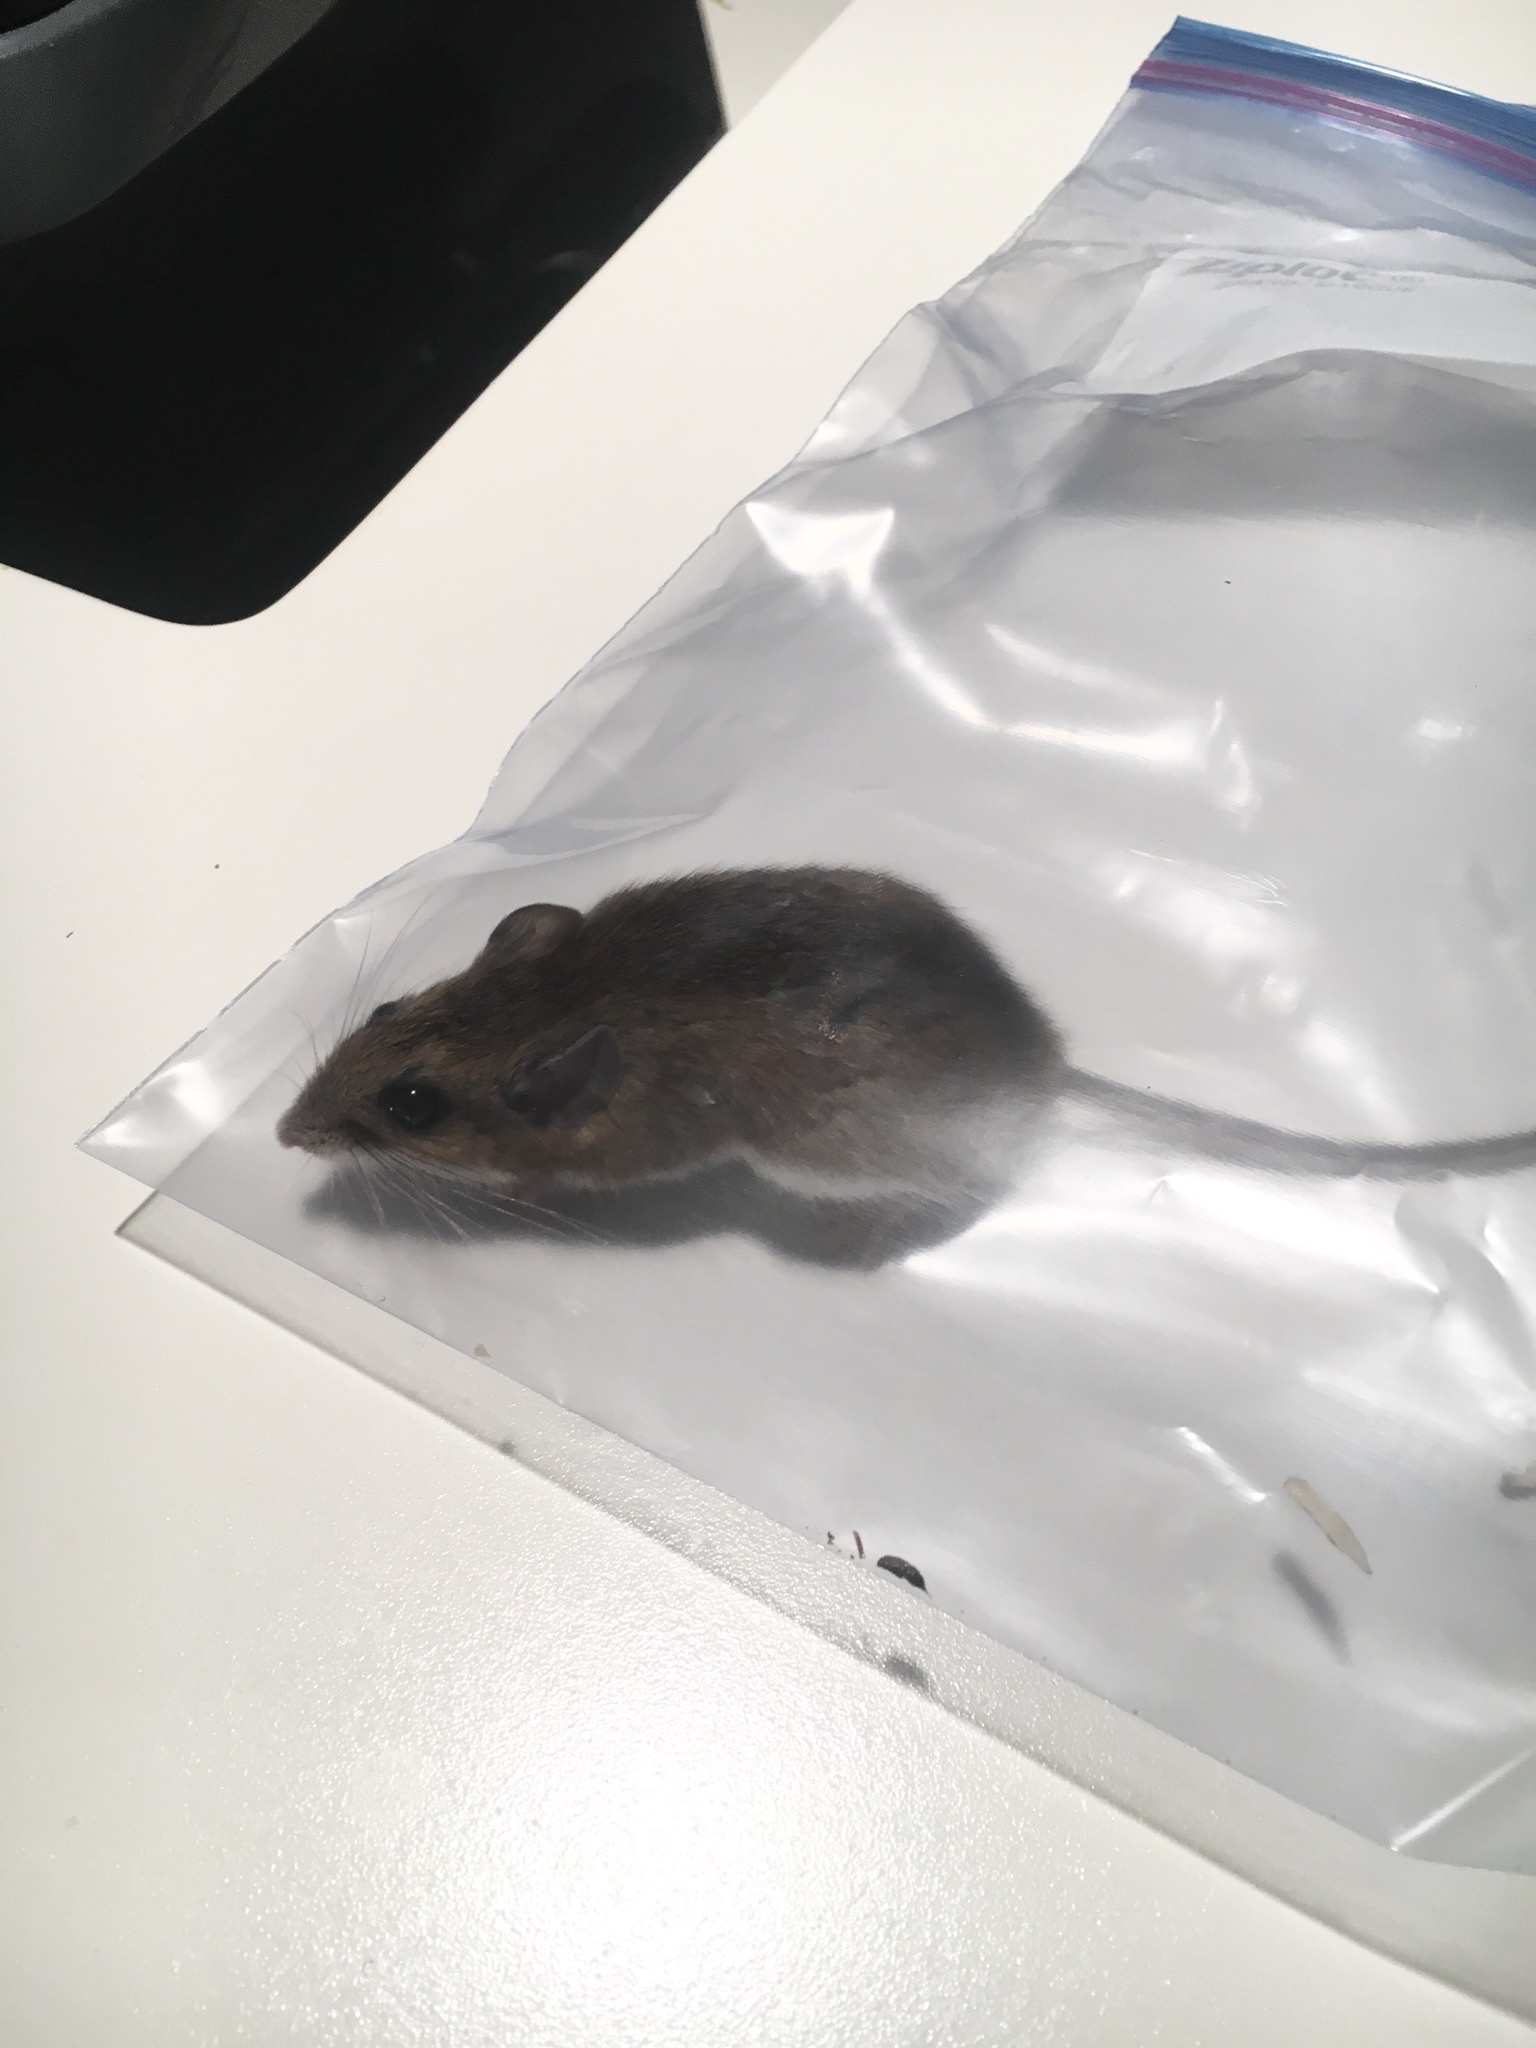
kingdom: Animalia
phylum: Chordata
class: Mammalia
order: Rodentia
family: Cricetidae
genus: Peromyscus
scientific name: Peromyscus leucopus
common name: White-footed deermouse
